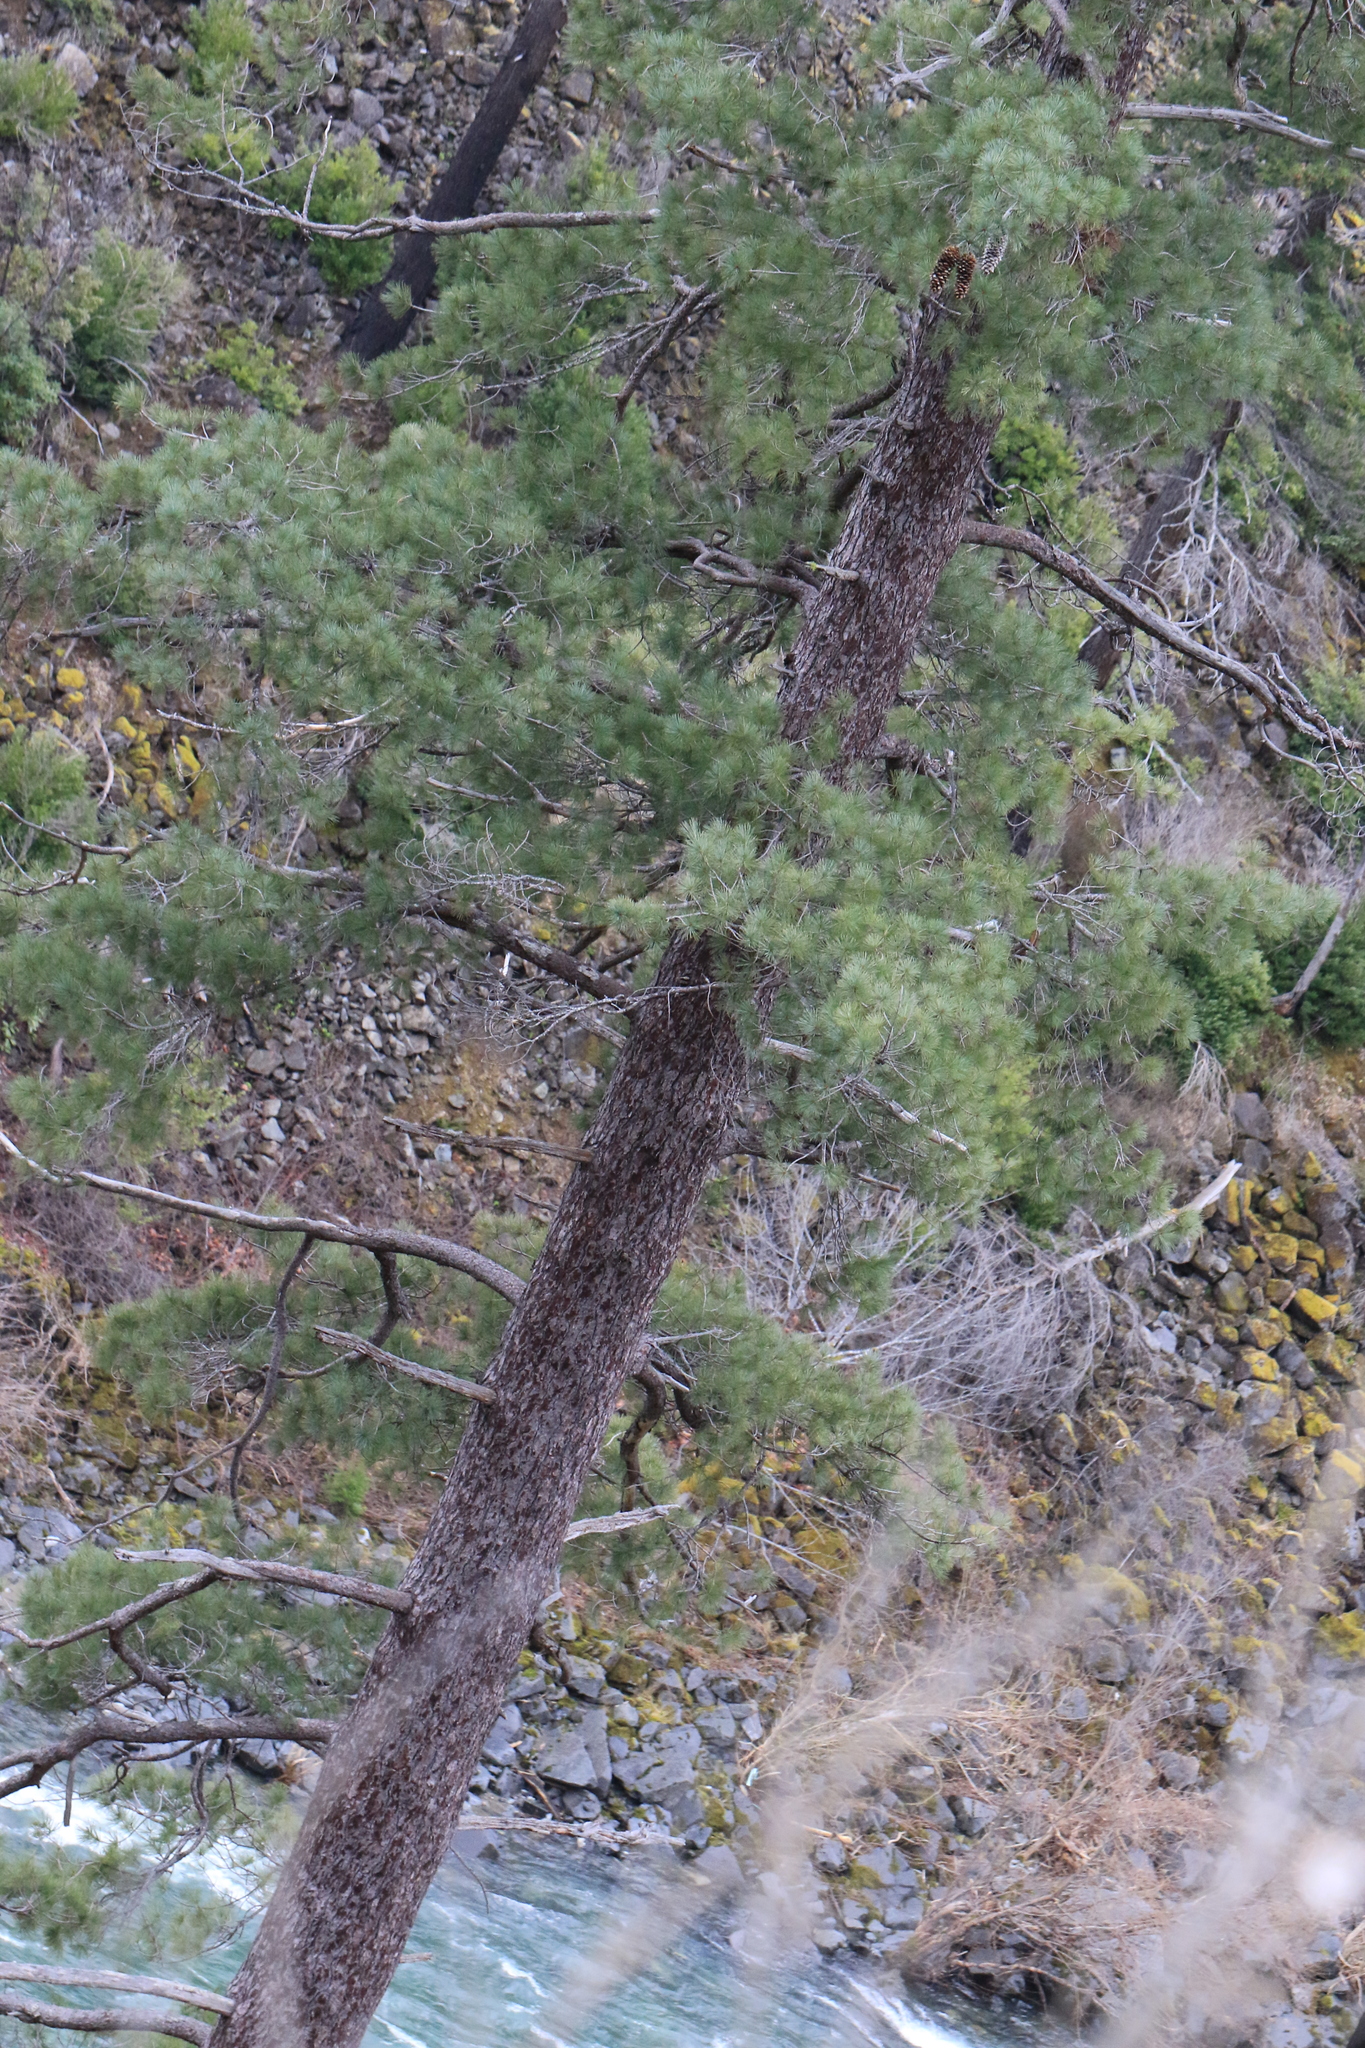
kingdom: Plantae
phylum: Tracheophyta
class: Pinopsida
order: Pinales
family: Pinaceae
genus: Pinus
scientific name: Pinus lambertiana
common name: Sugar pine
